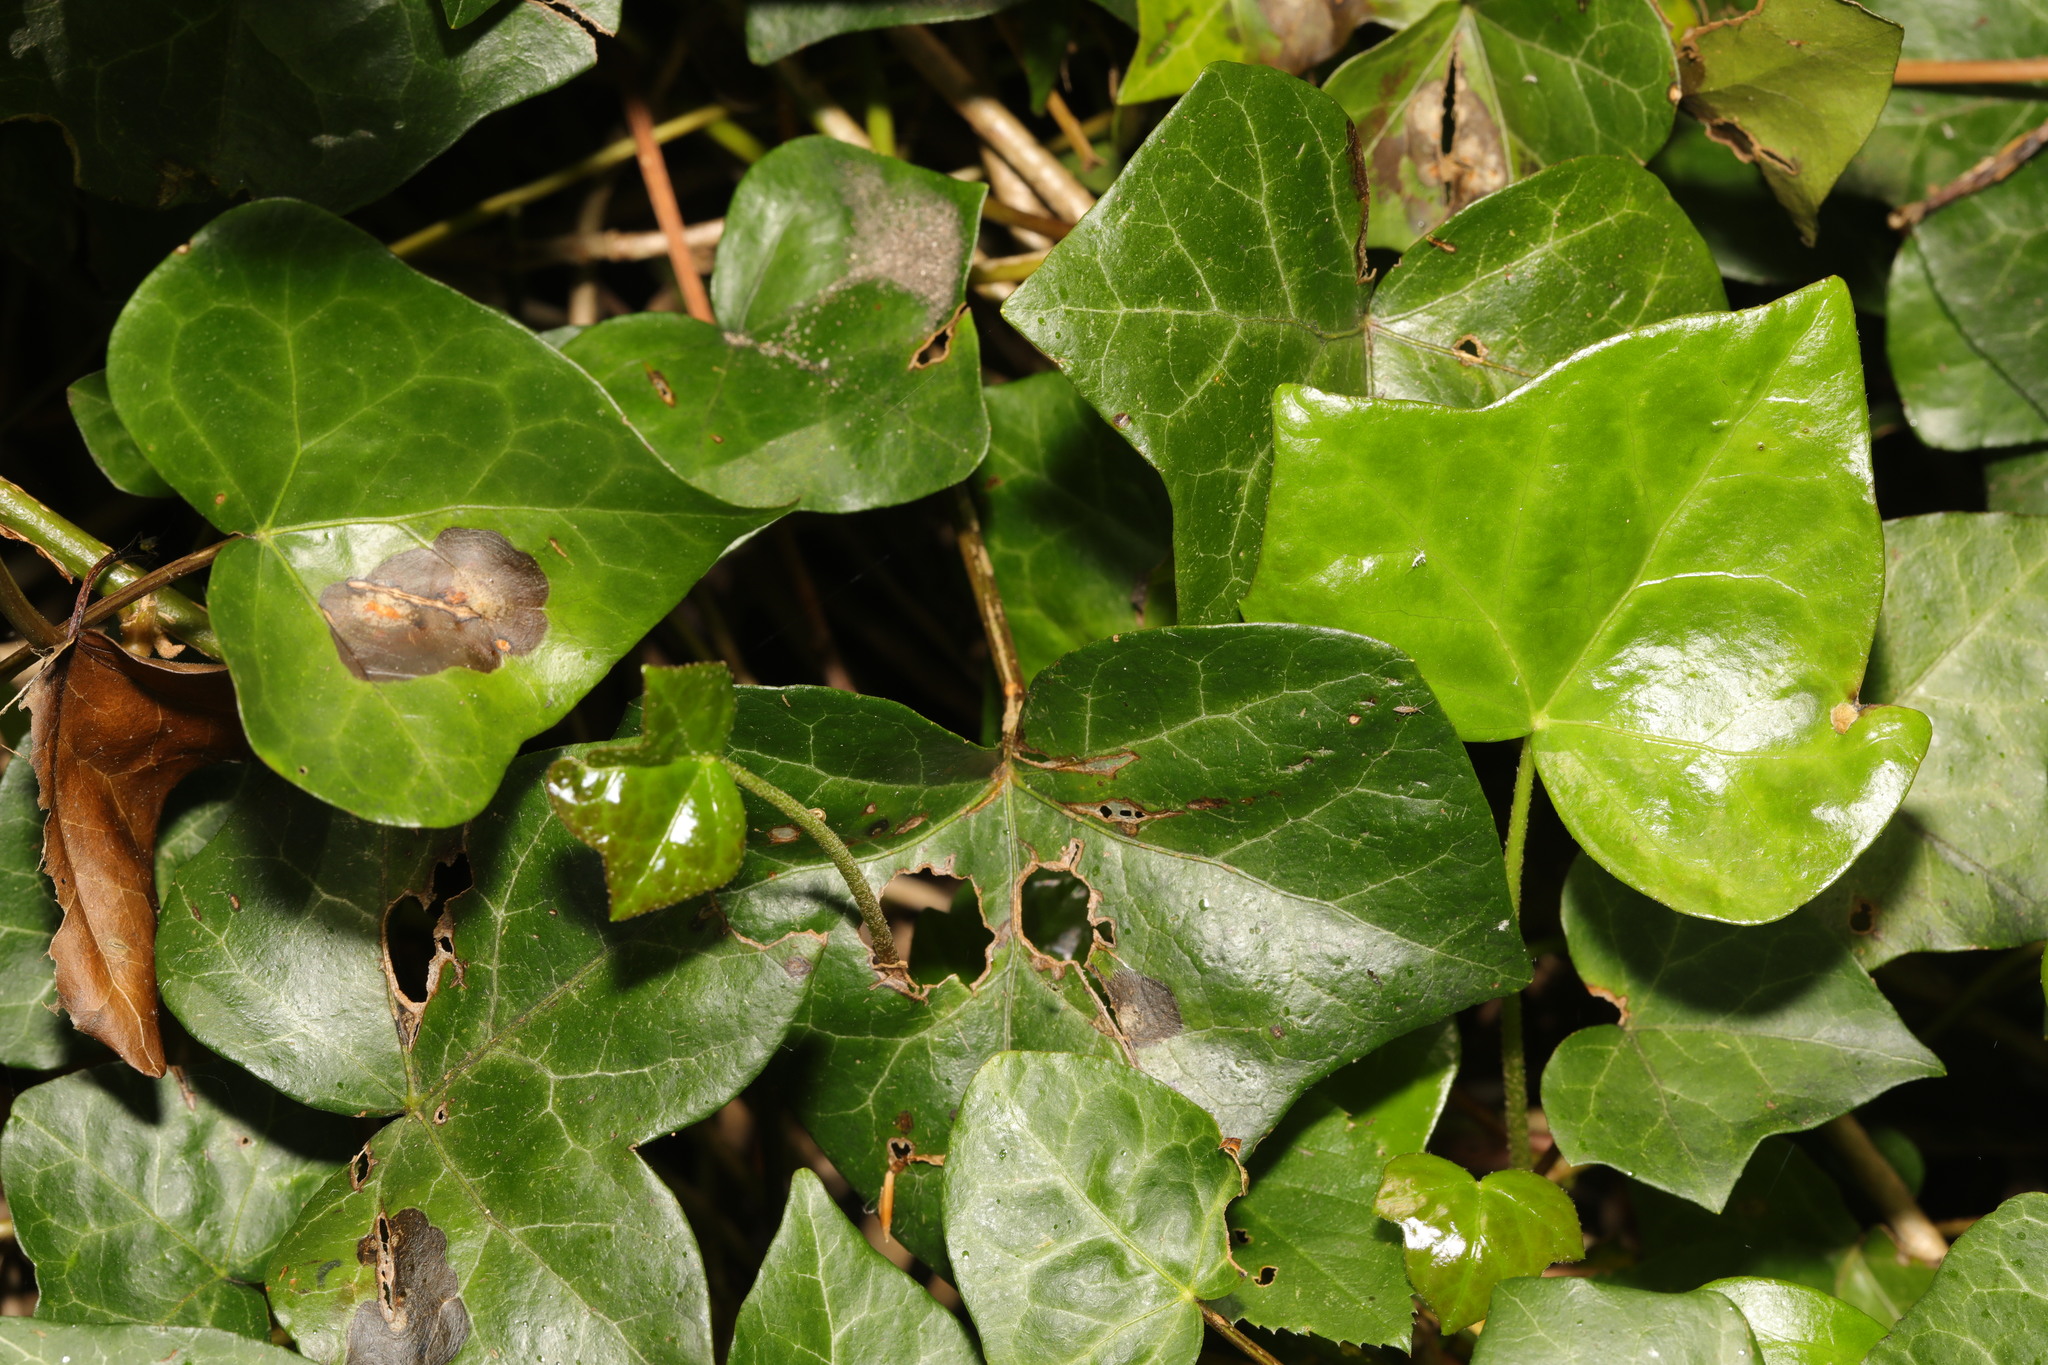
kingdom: Plantae
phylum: Tracheophyta
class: Magnoliopsida
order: Apiales
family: Araliaceae
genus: Hedera
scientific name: Hedera helix
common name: Ivy
